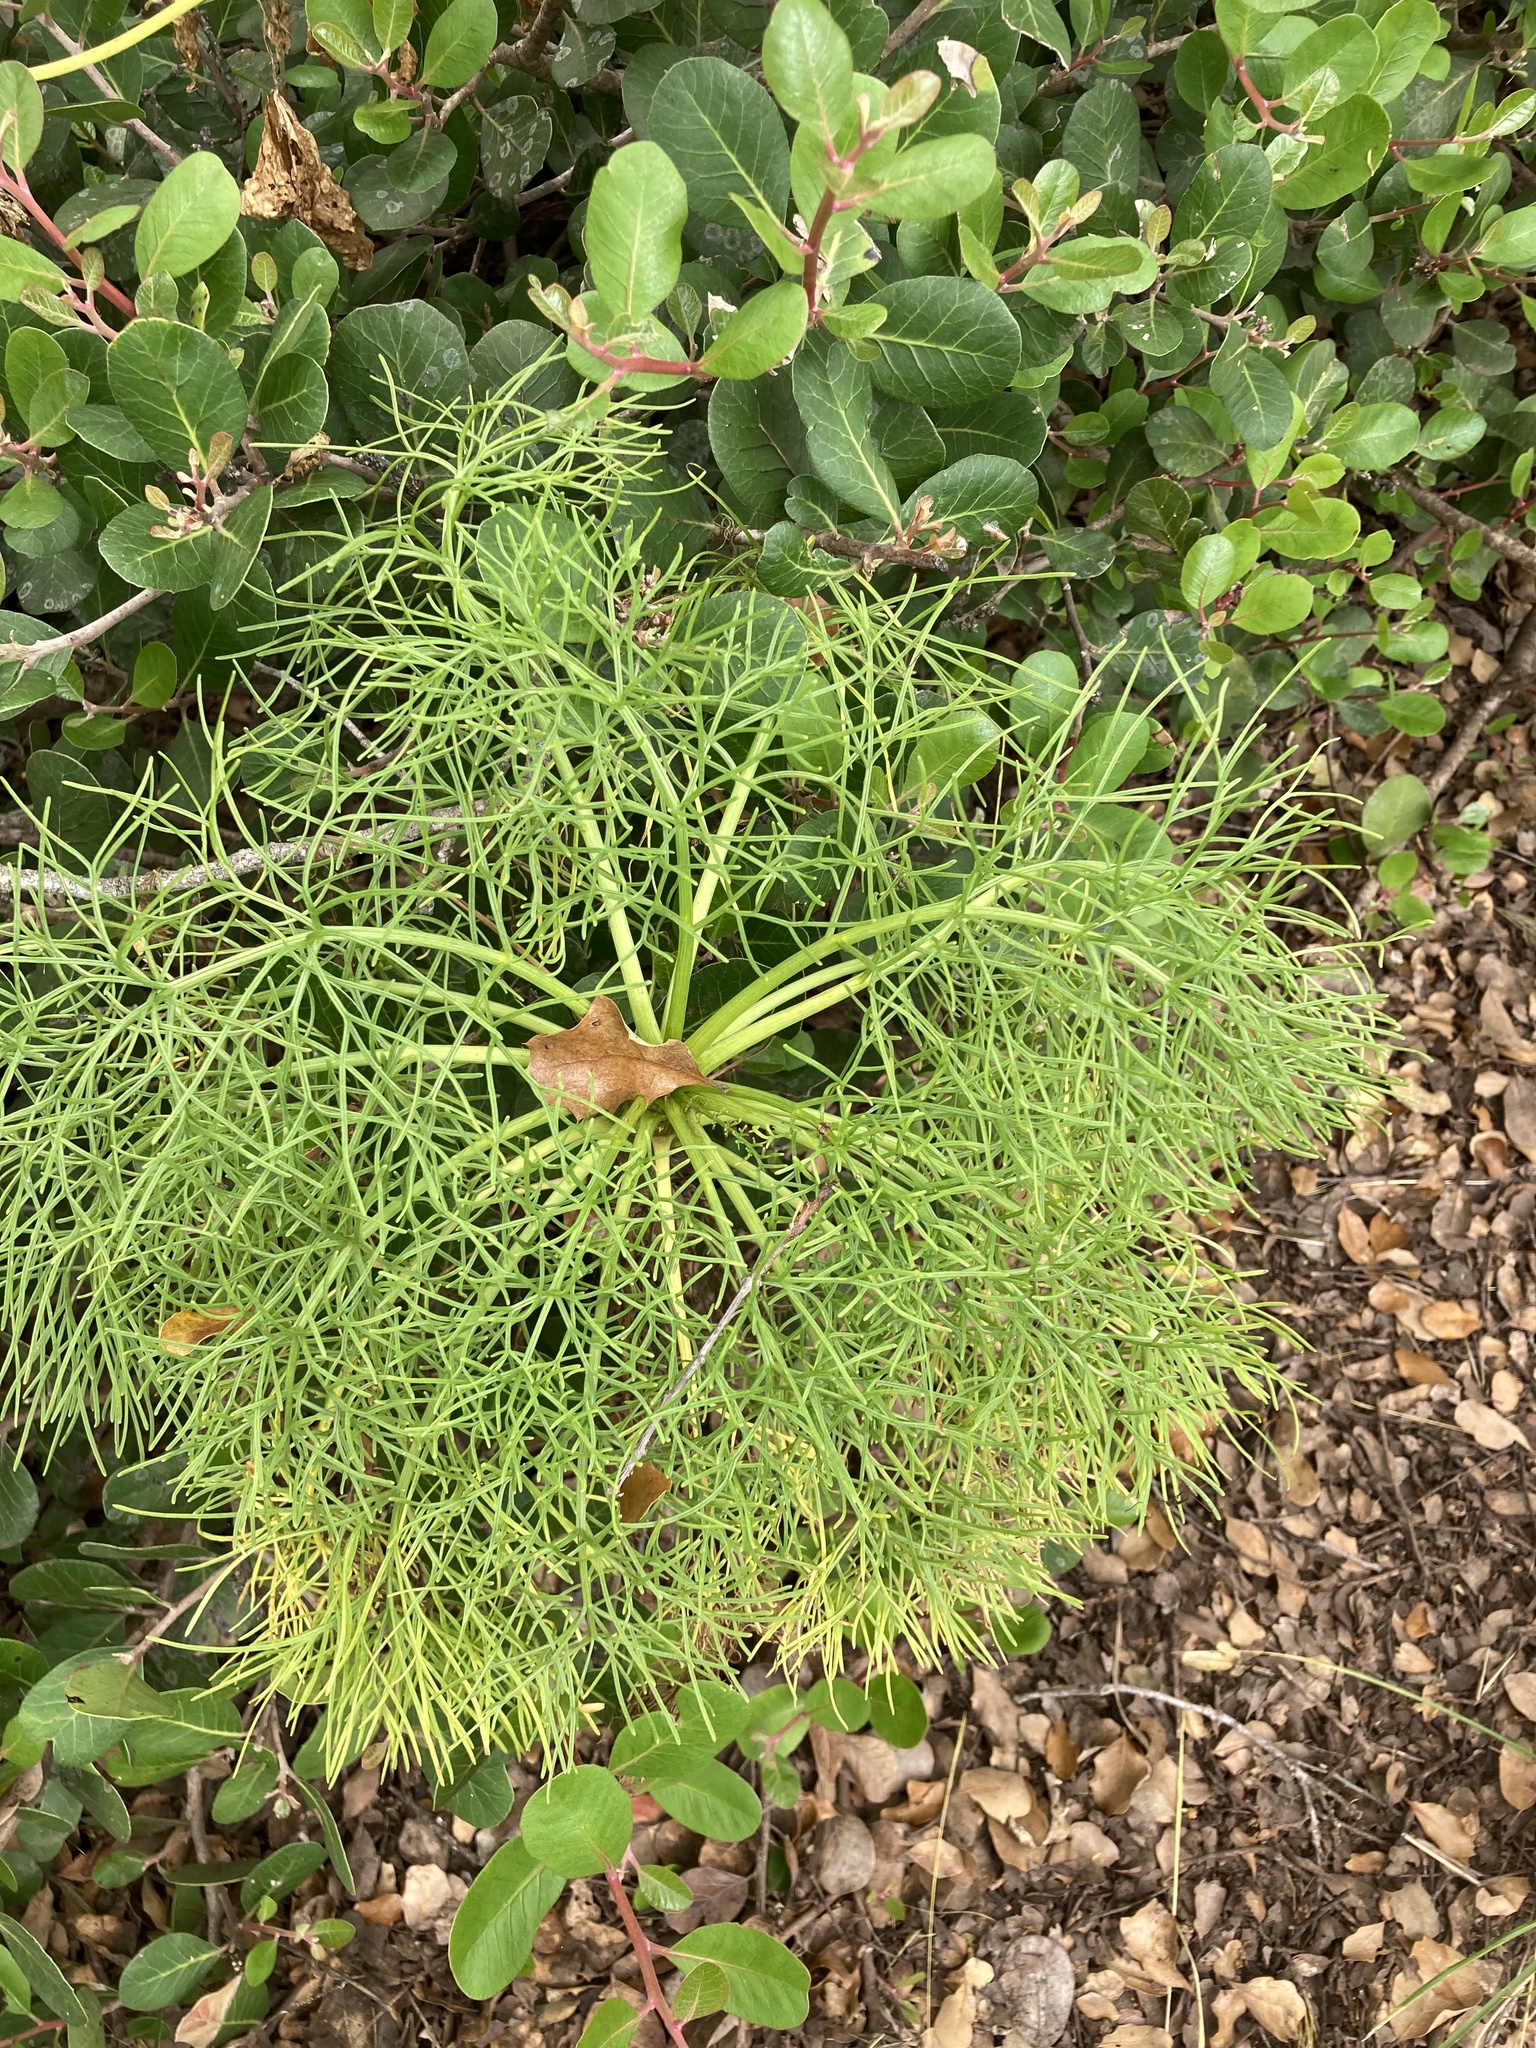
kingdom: Plantae
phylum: Tracheophyta
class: Magnoliopsida
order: Asterales
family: Asteraceae
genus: Coreopsis
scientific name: Coreopsis gigantea
